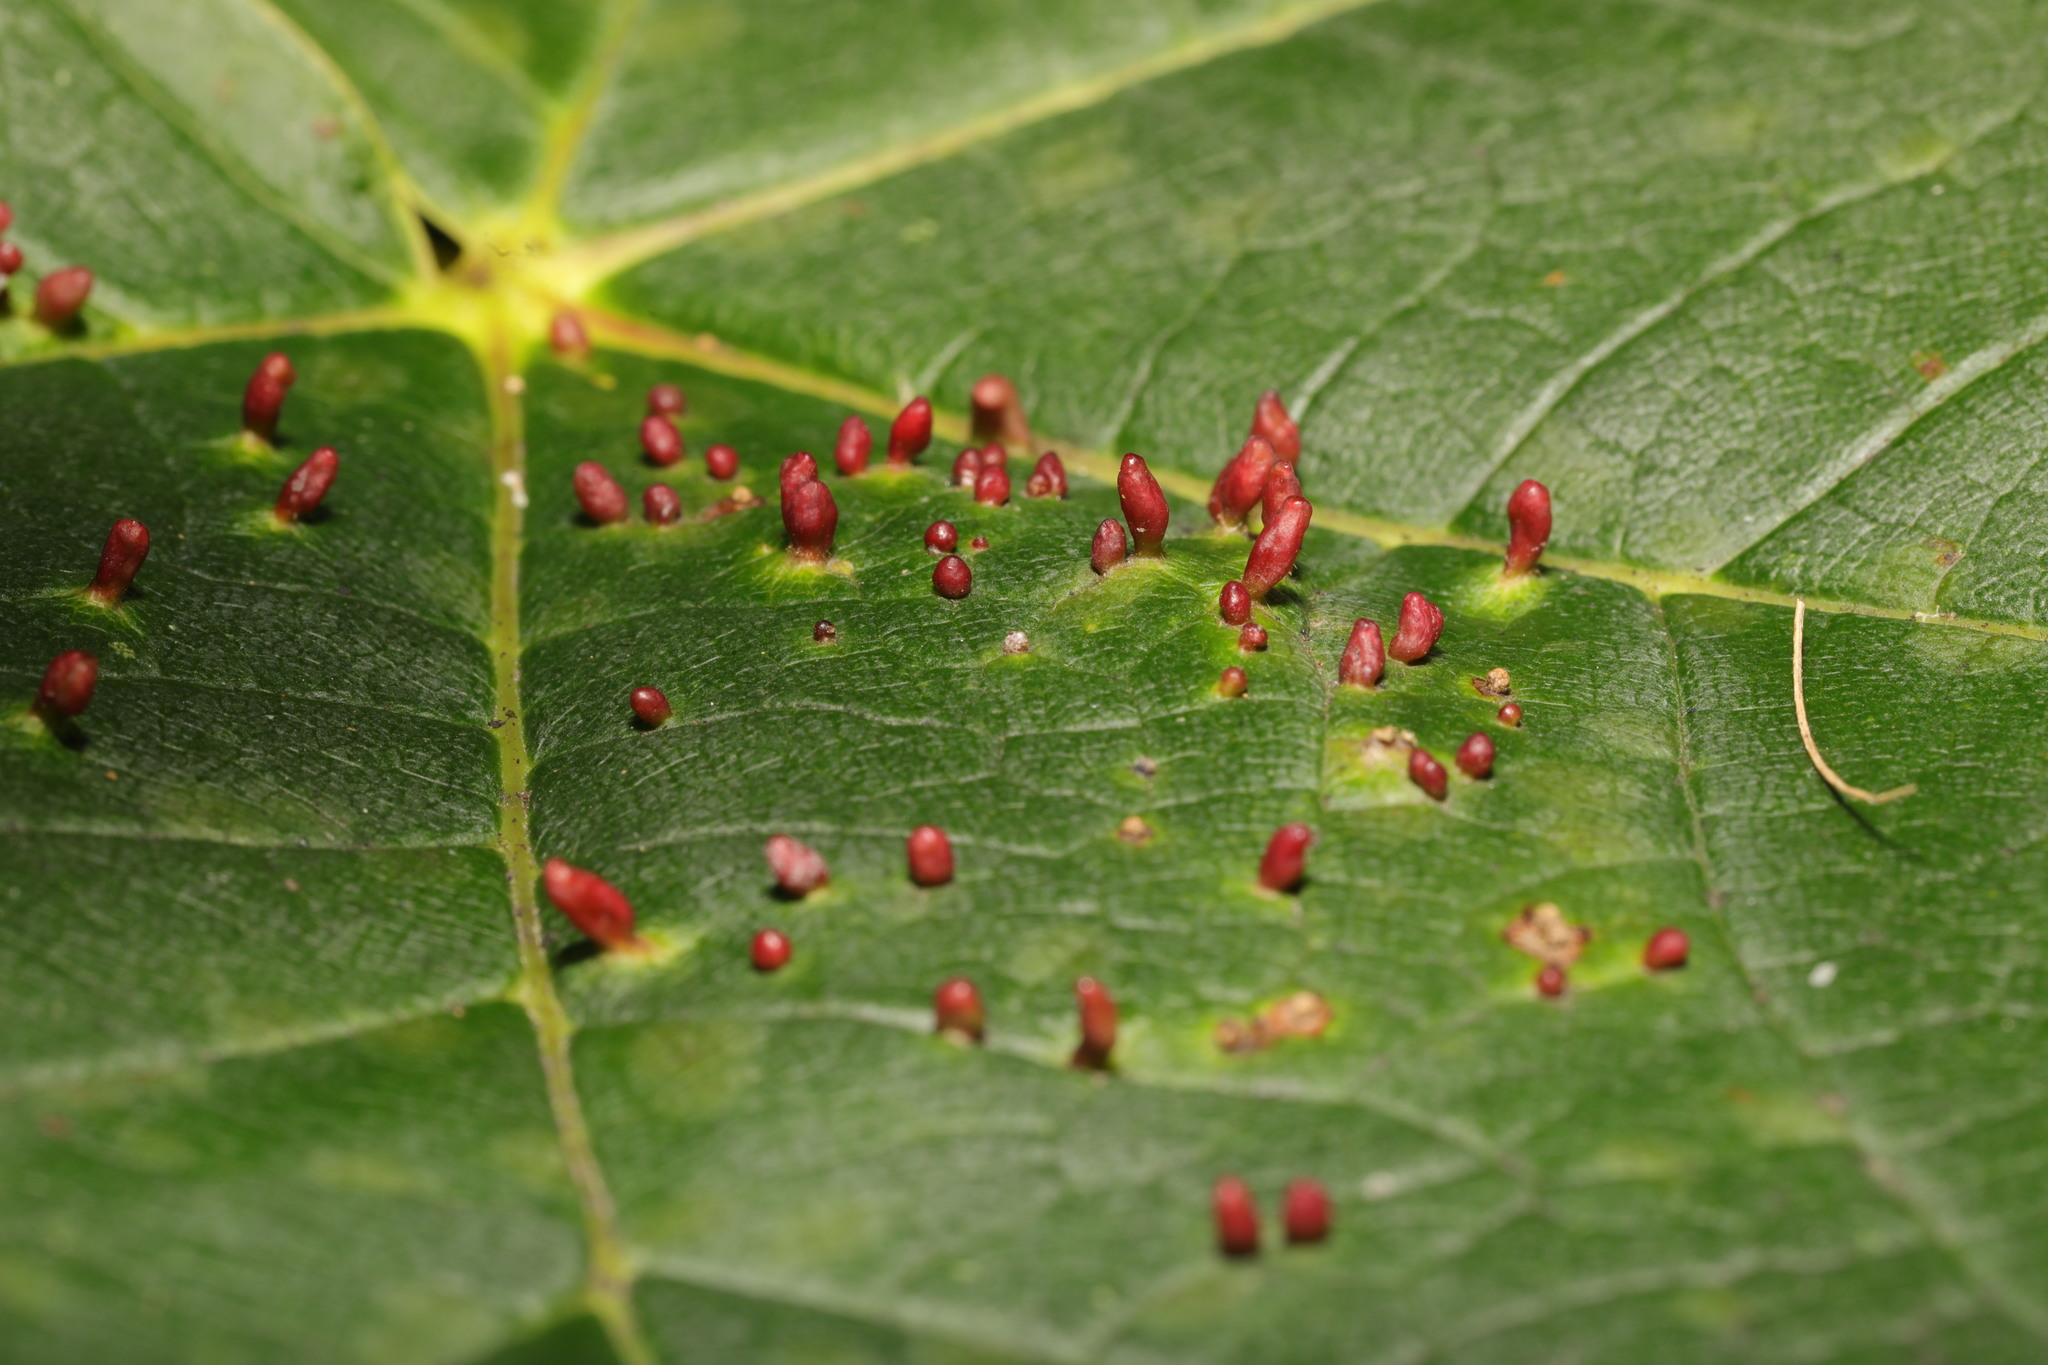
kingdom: Animalia
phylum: Arthropoda
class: Arachnida
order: Trombidiformes
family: Eriophyidae
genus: Aceria
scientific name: Aceria cephaloneus
